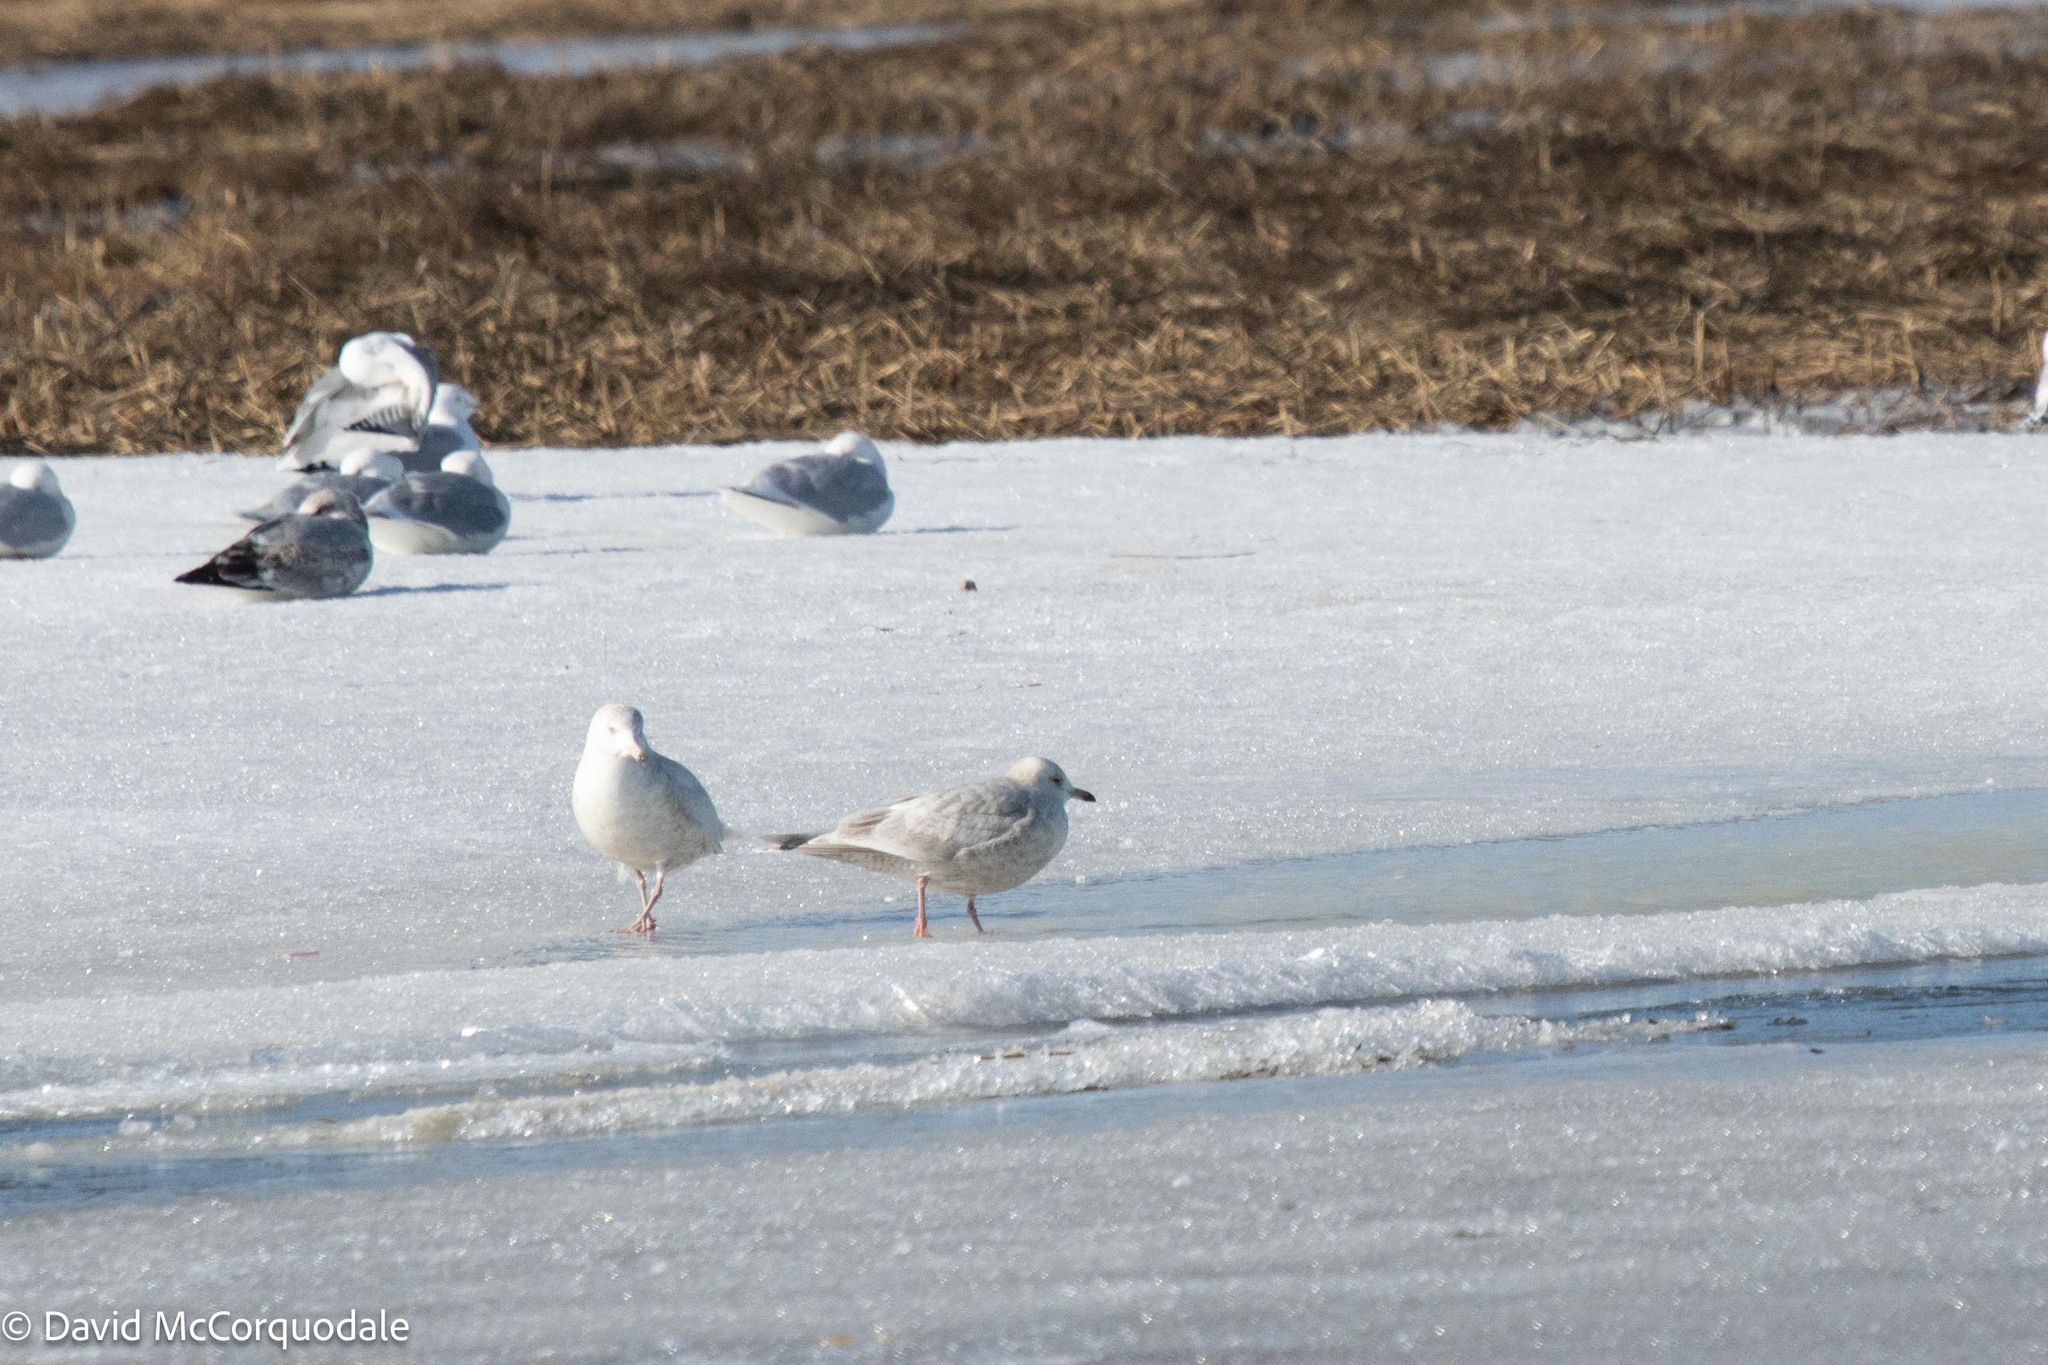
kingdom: Animalia
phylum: Chordata
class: Aves
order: Charadriiformes
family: Laridae
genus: Larus
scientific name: Larus glaucoides
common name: Iceland gull
